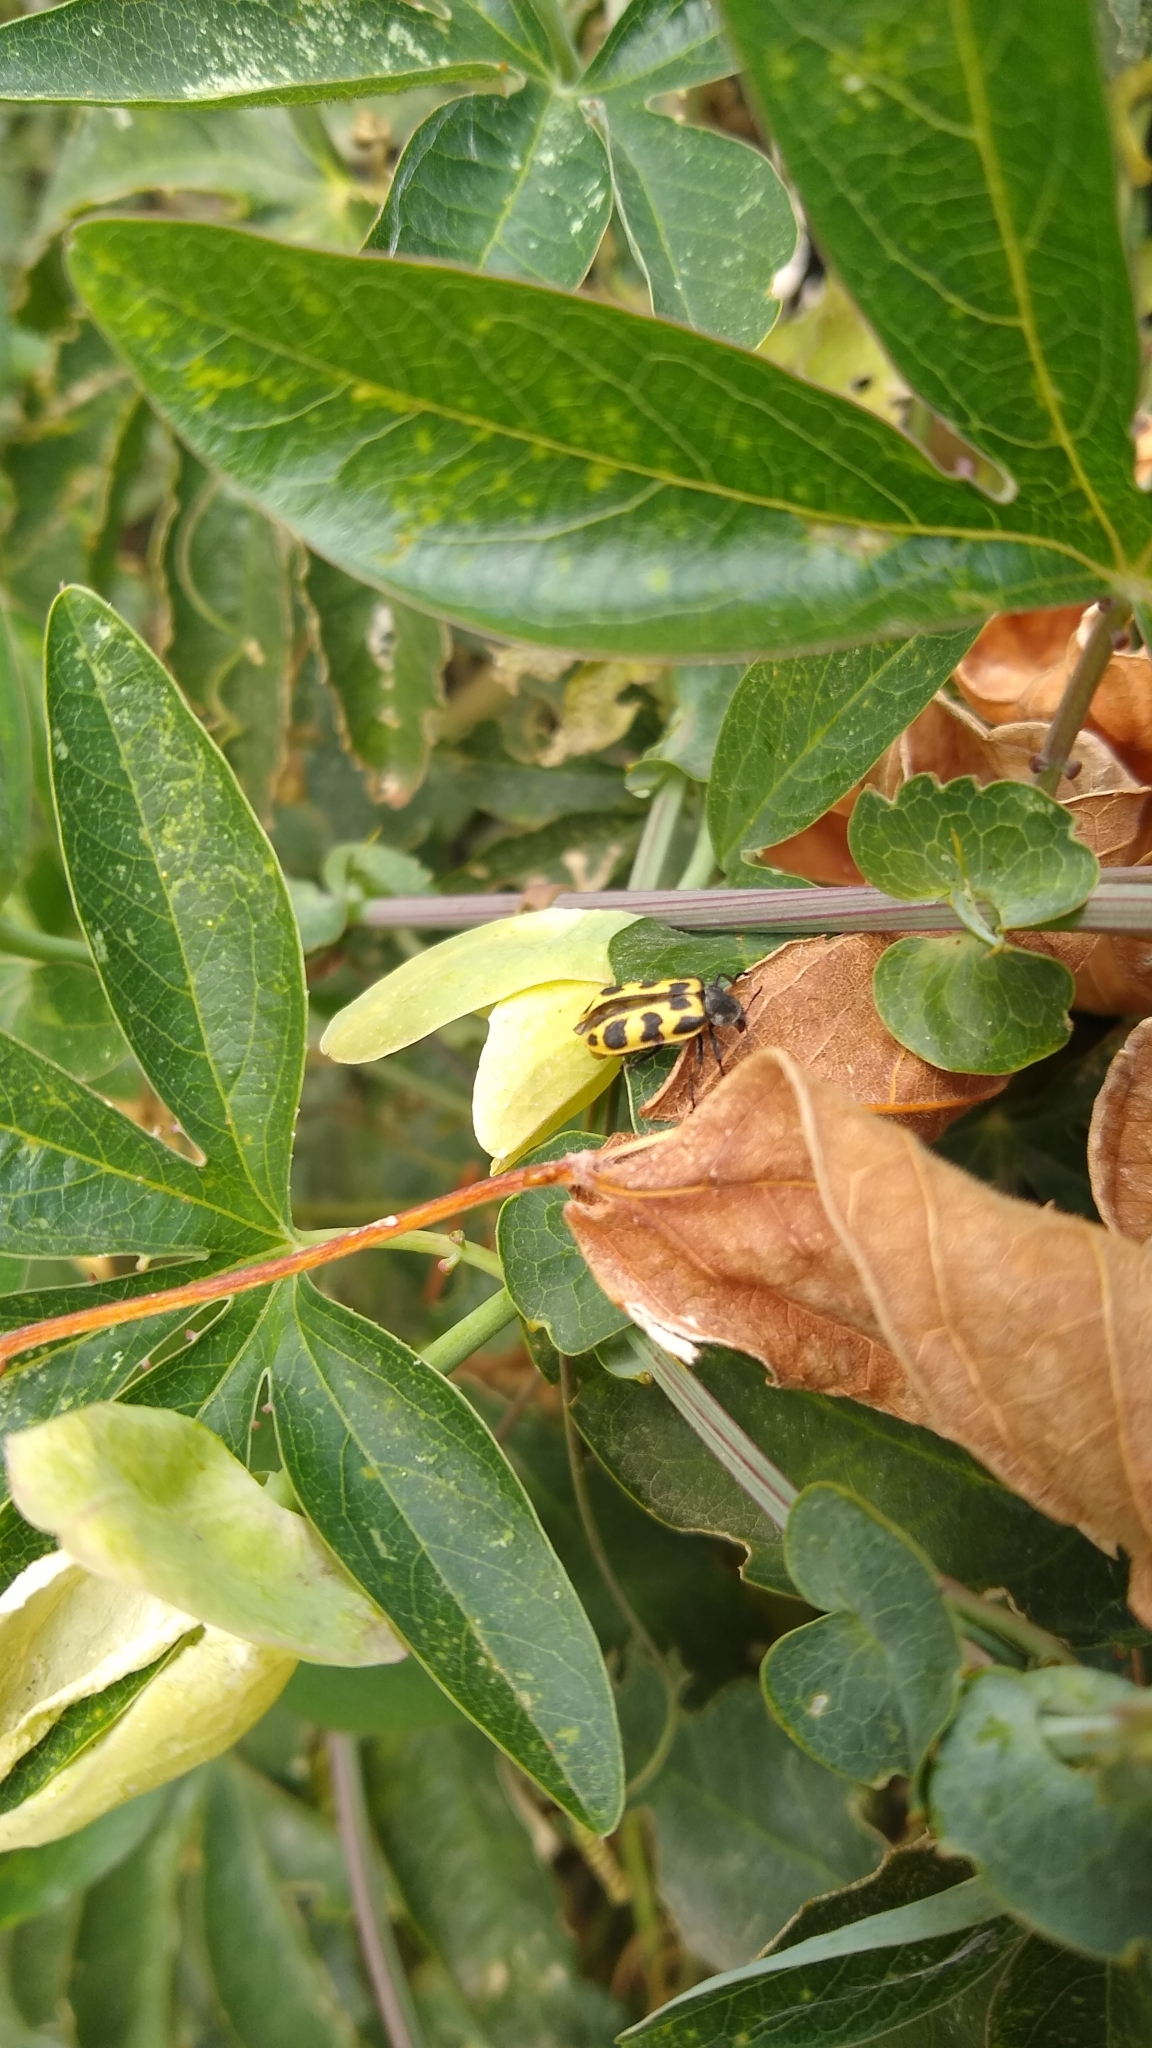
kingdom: Animalia
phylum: Arthropoda
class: Insecta
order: Coleoptera
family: Melyridae
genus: Astylus
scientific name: Astylus atromaculatus
